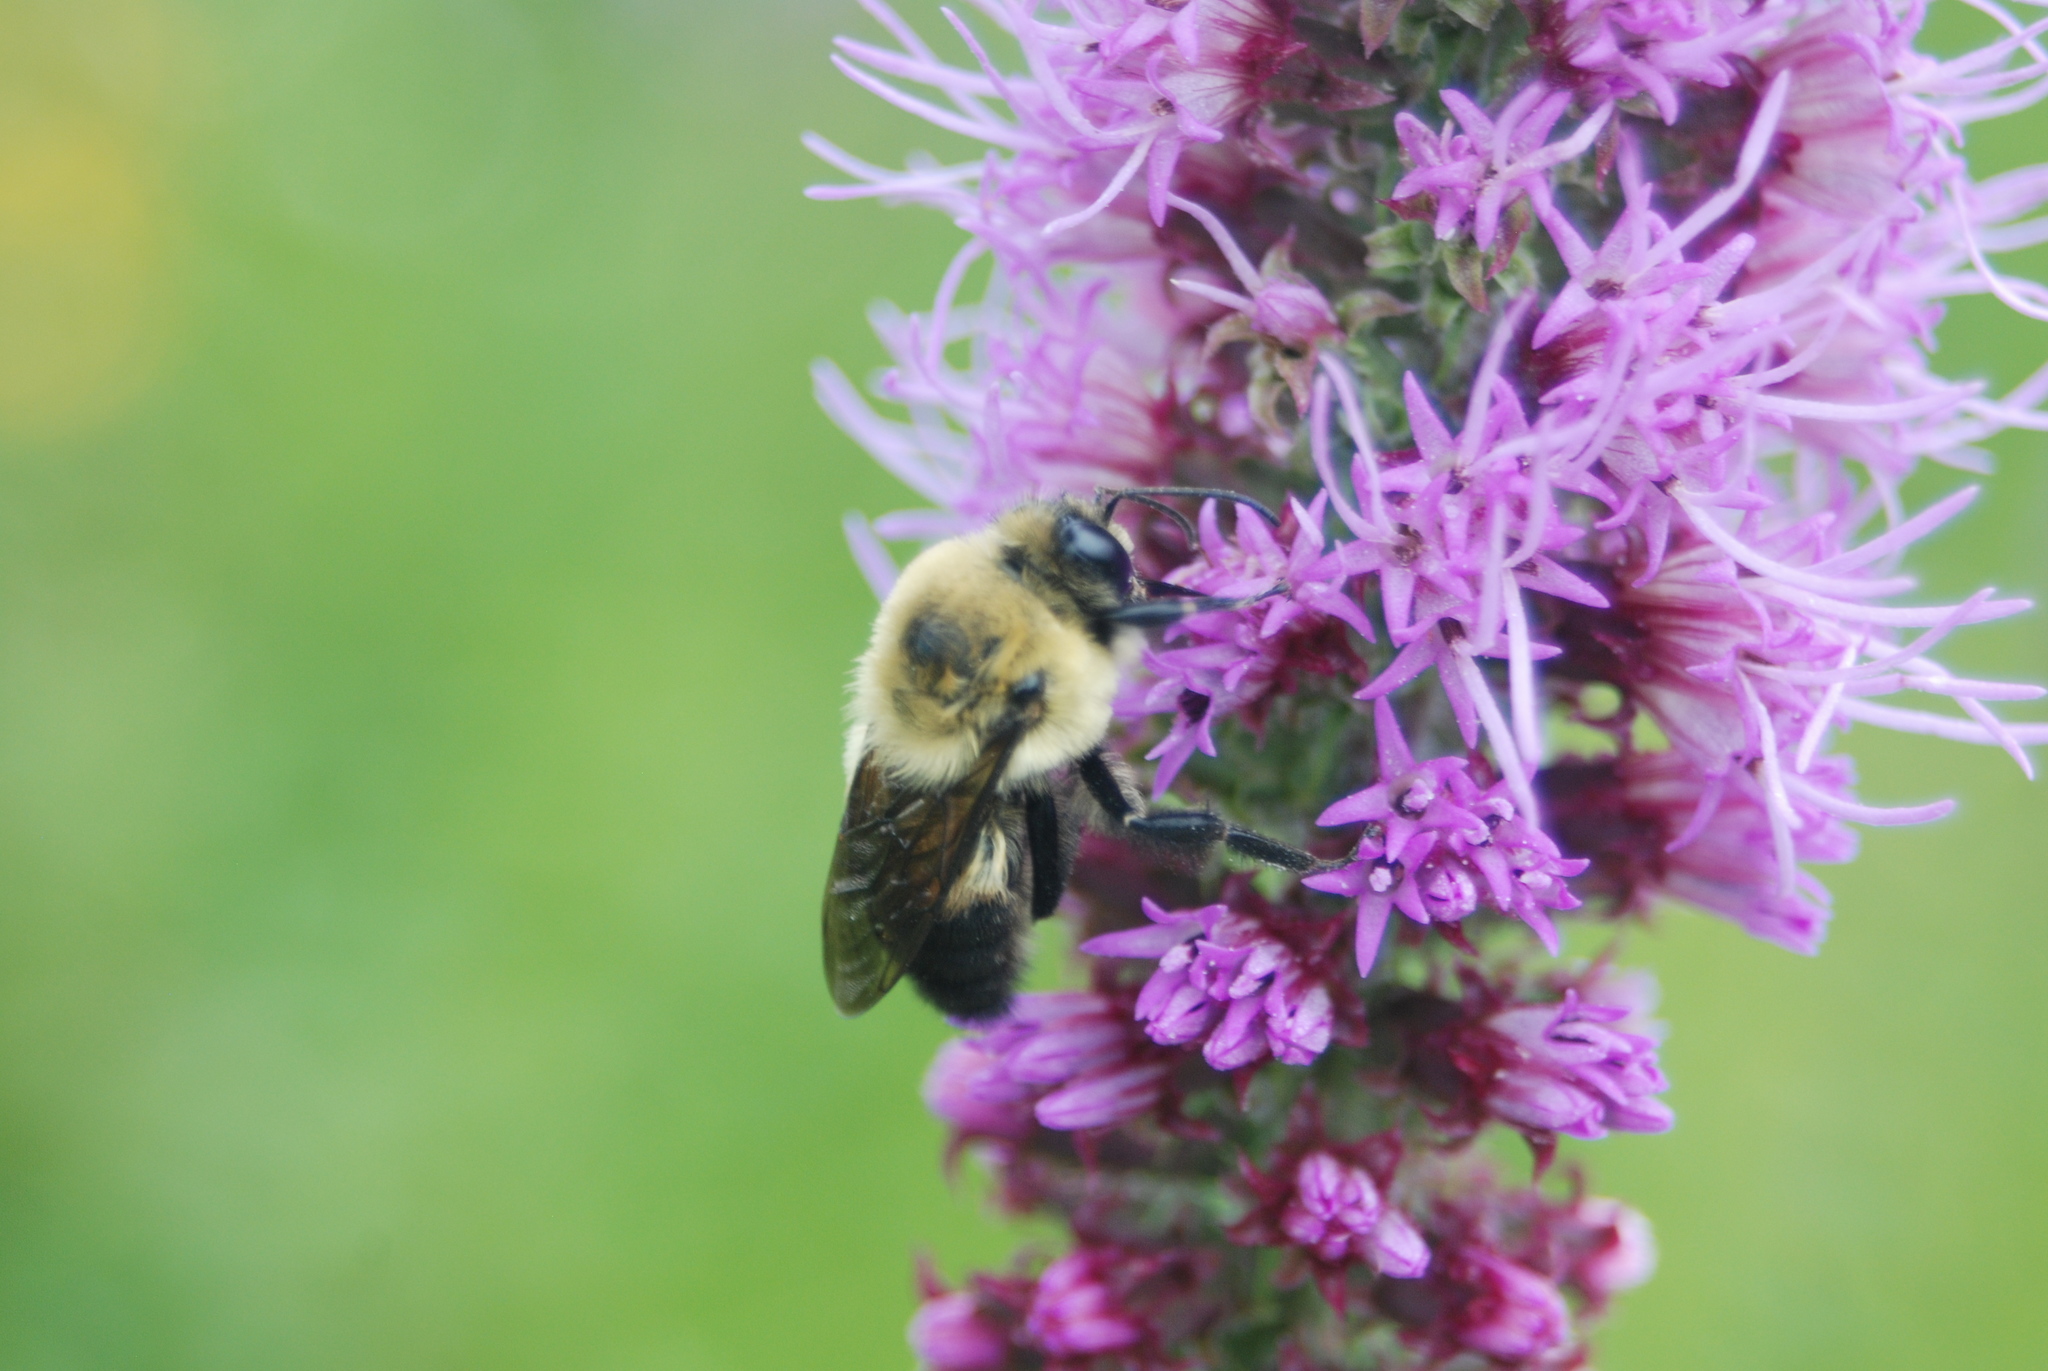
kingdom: Animalia
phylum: Arthropoda
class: Insecta
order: Hymenoptera
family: Apidae
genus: Bombus
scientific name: Bombus griseocollis
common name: Brown-belted bumble bee
